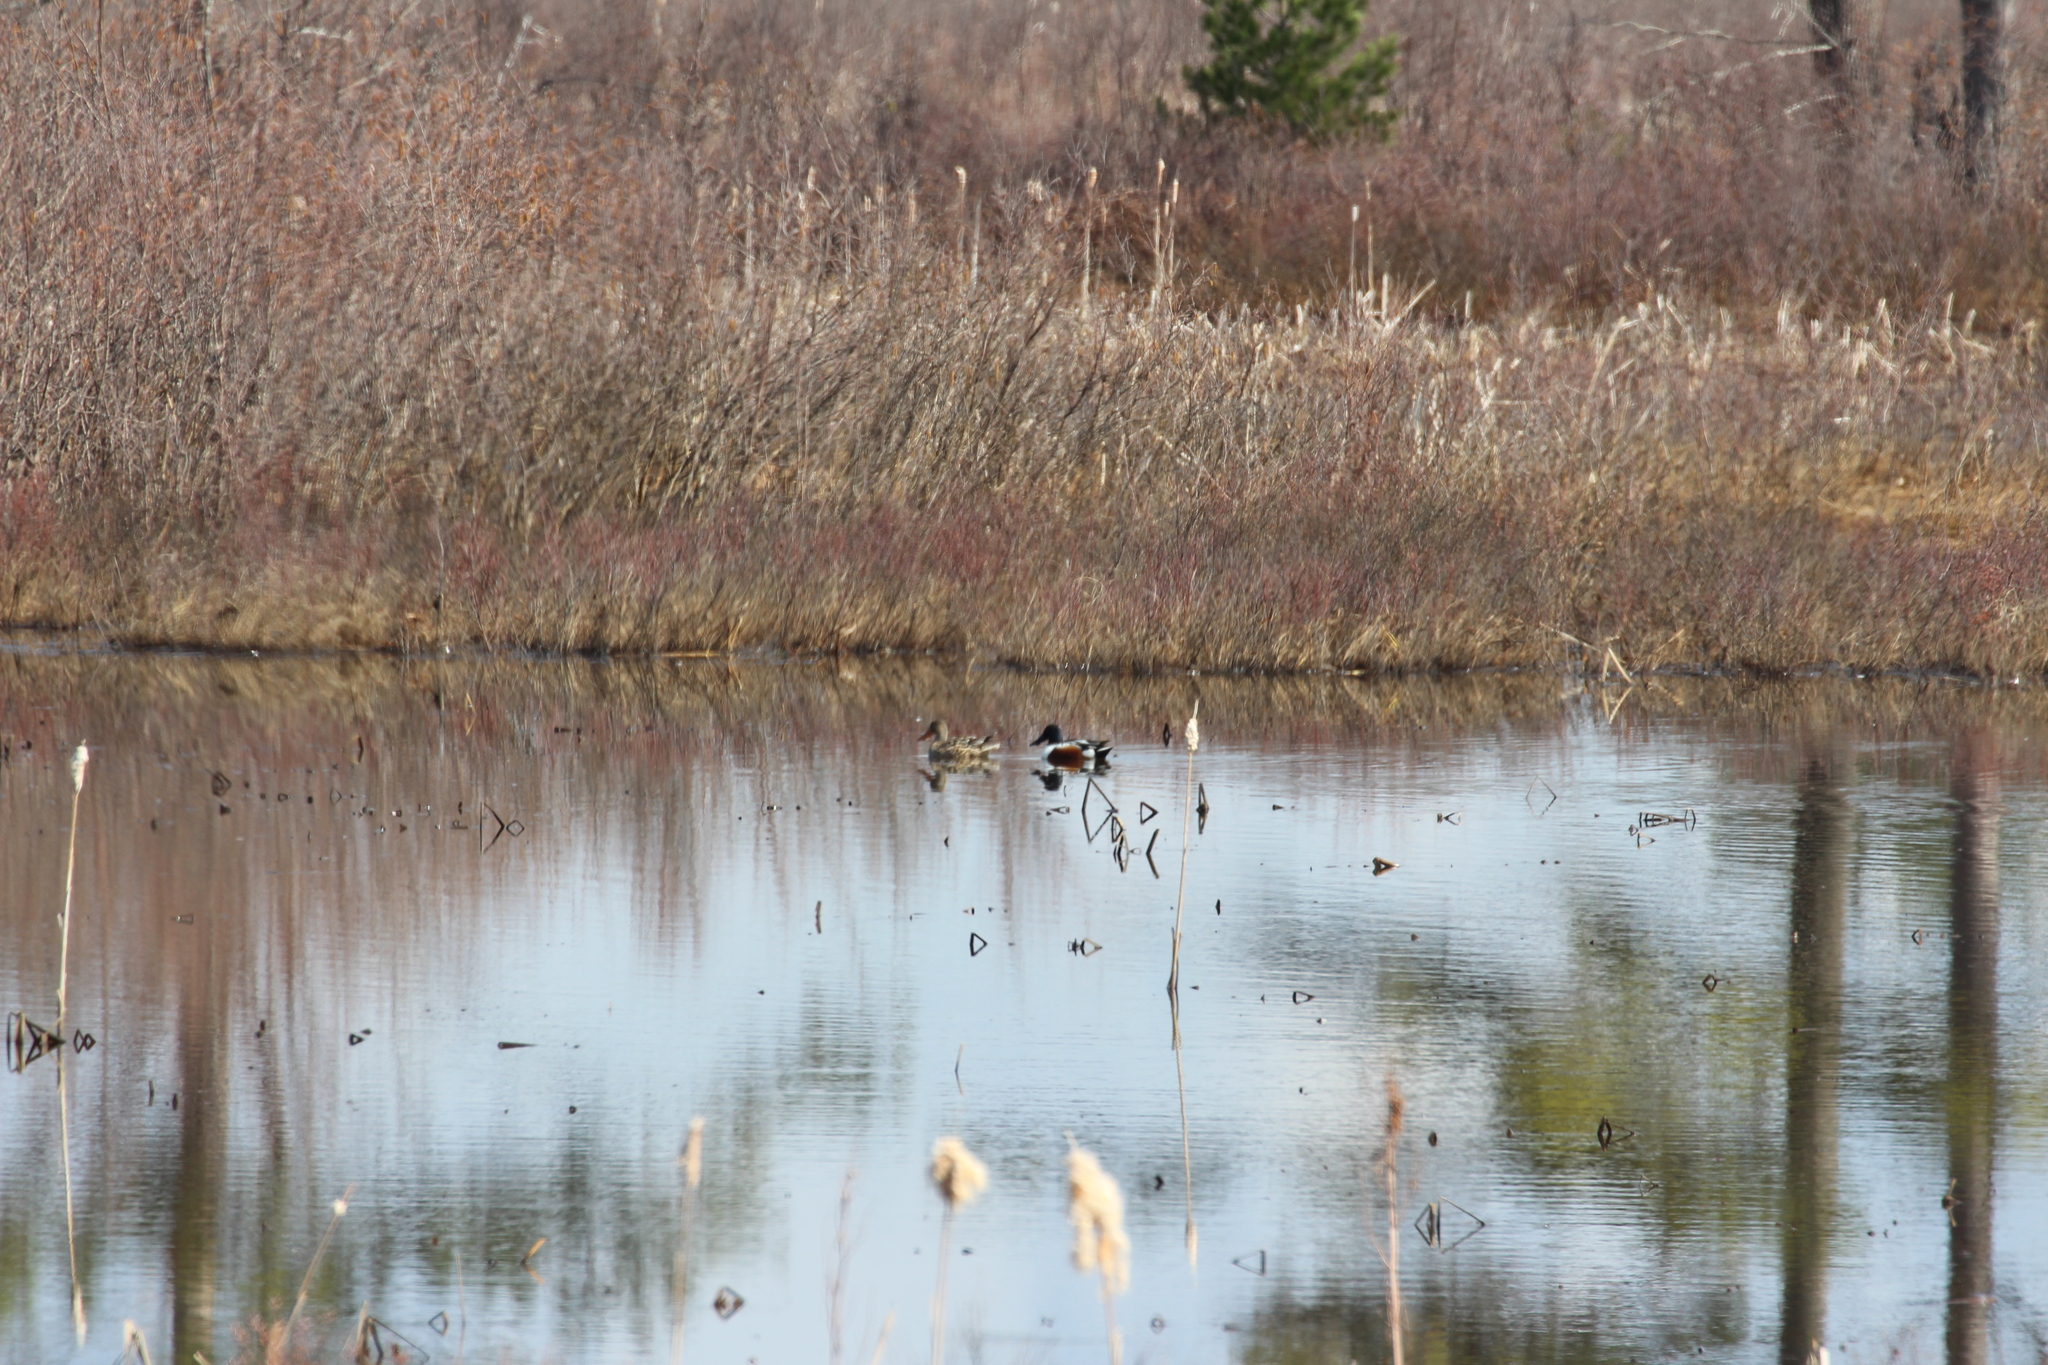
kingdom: Animalia
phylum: Chordata
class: Aves
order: Anseriformes
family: Anatidae
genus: Spatula
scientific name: Spatula clypeata
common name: Northern shoveler
